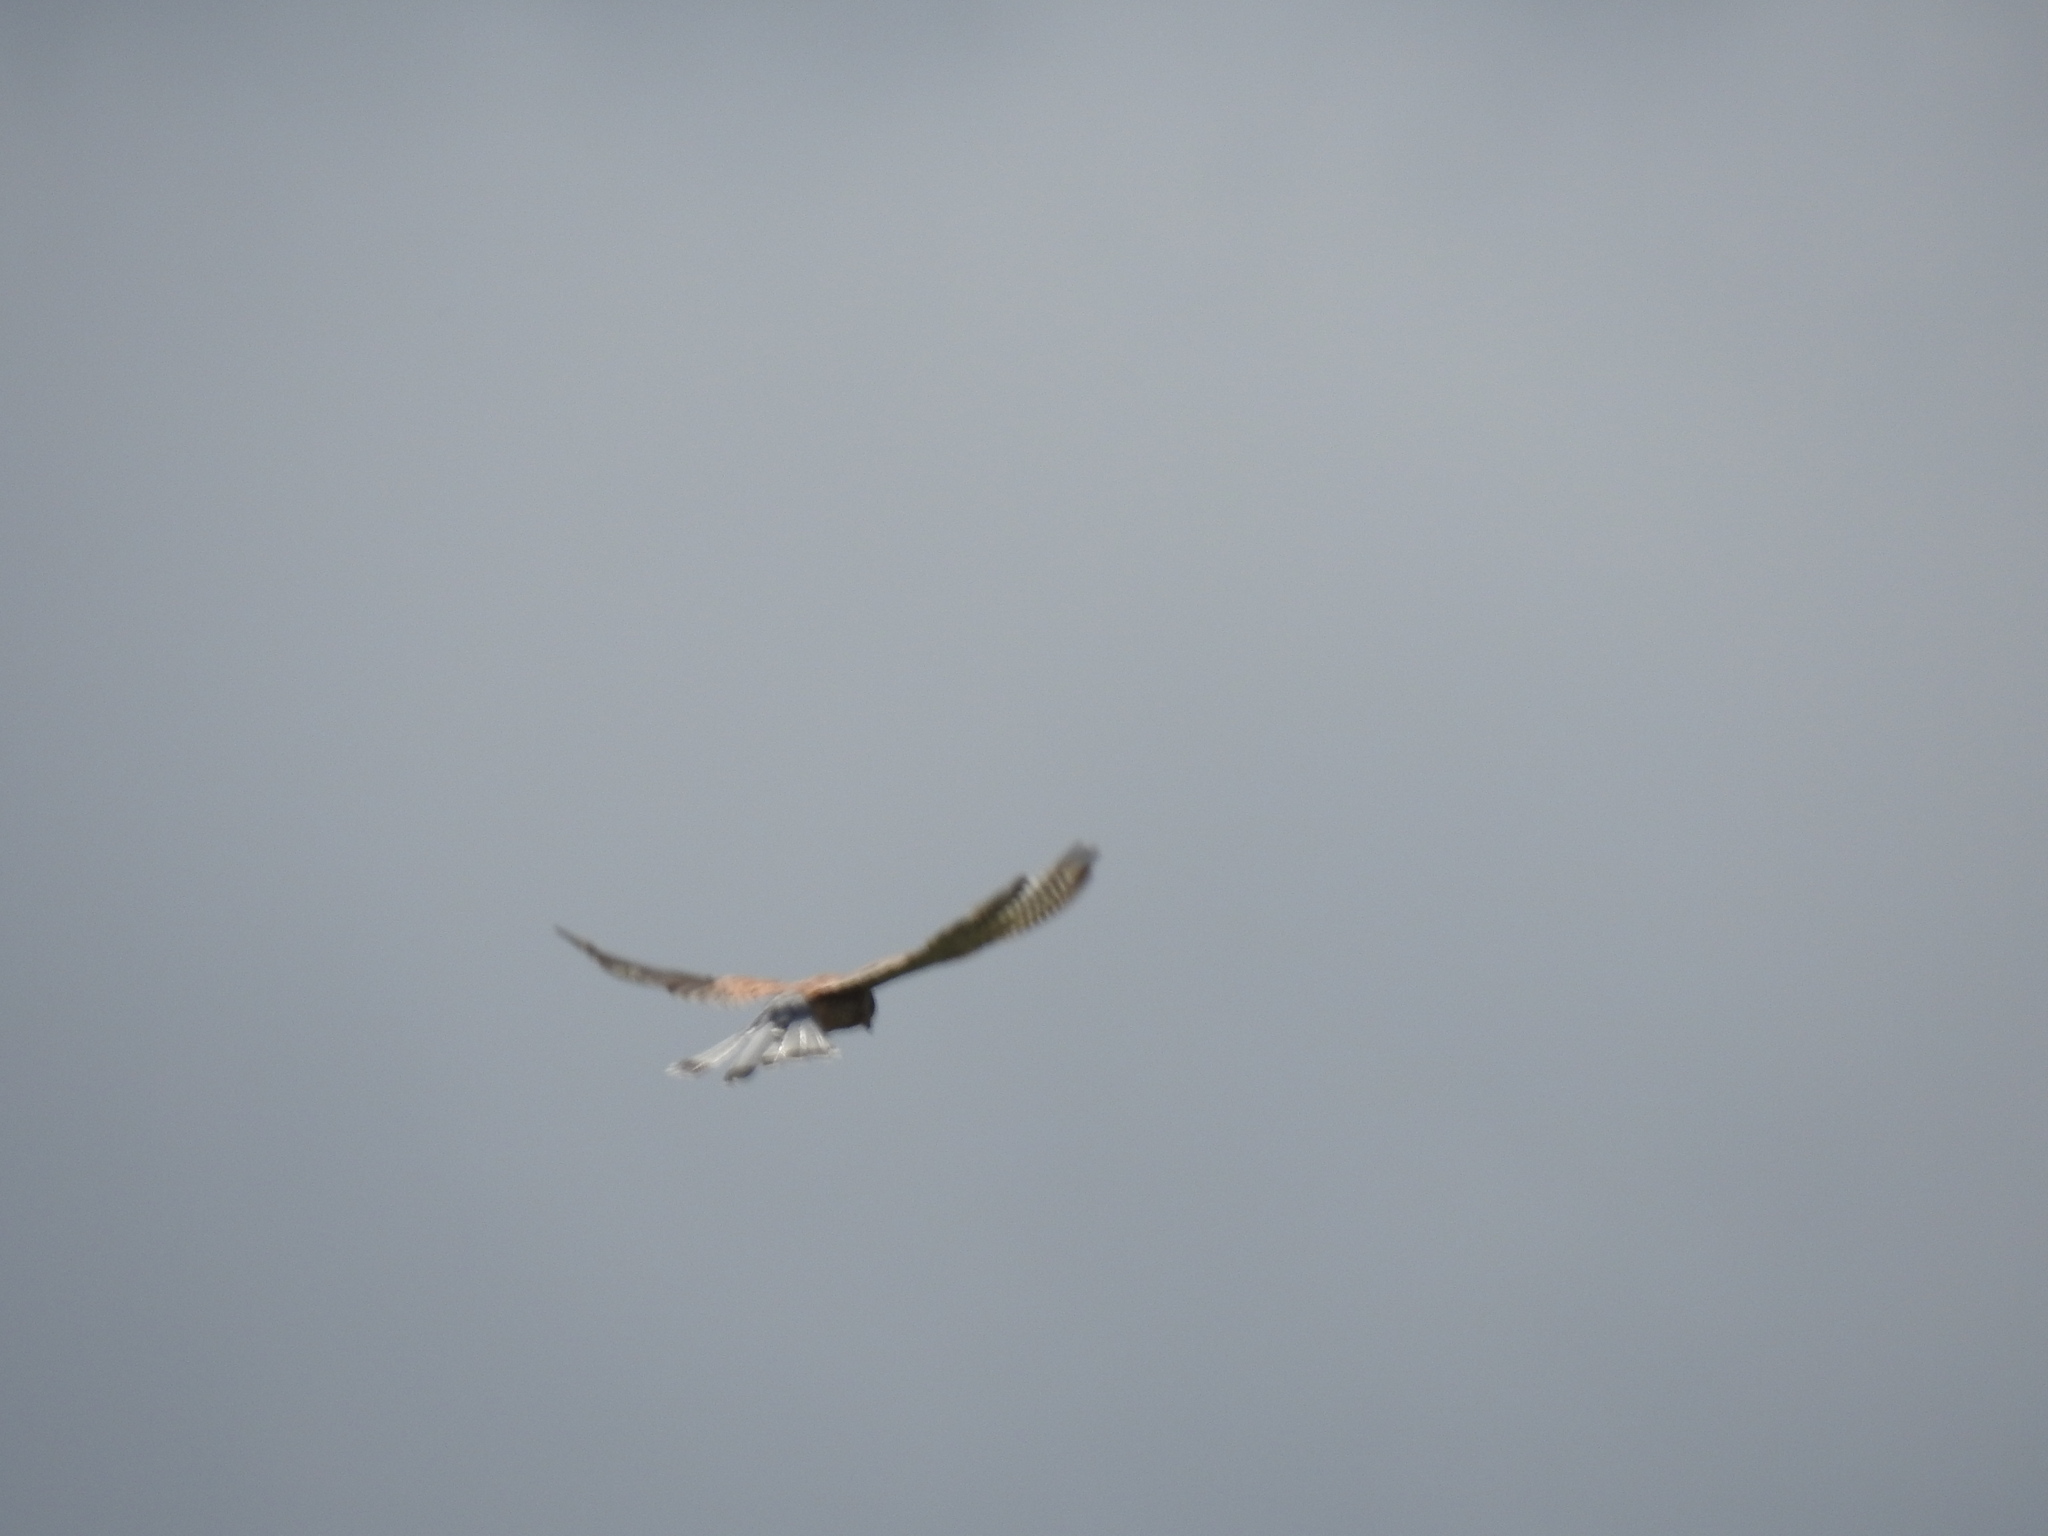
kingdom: Animalia
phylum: Chordata
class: Aves
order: Falconiformes
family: Falconidae
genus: Falco
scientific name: Falco tinnunculus
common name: Common kestrel
